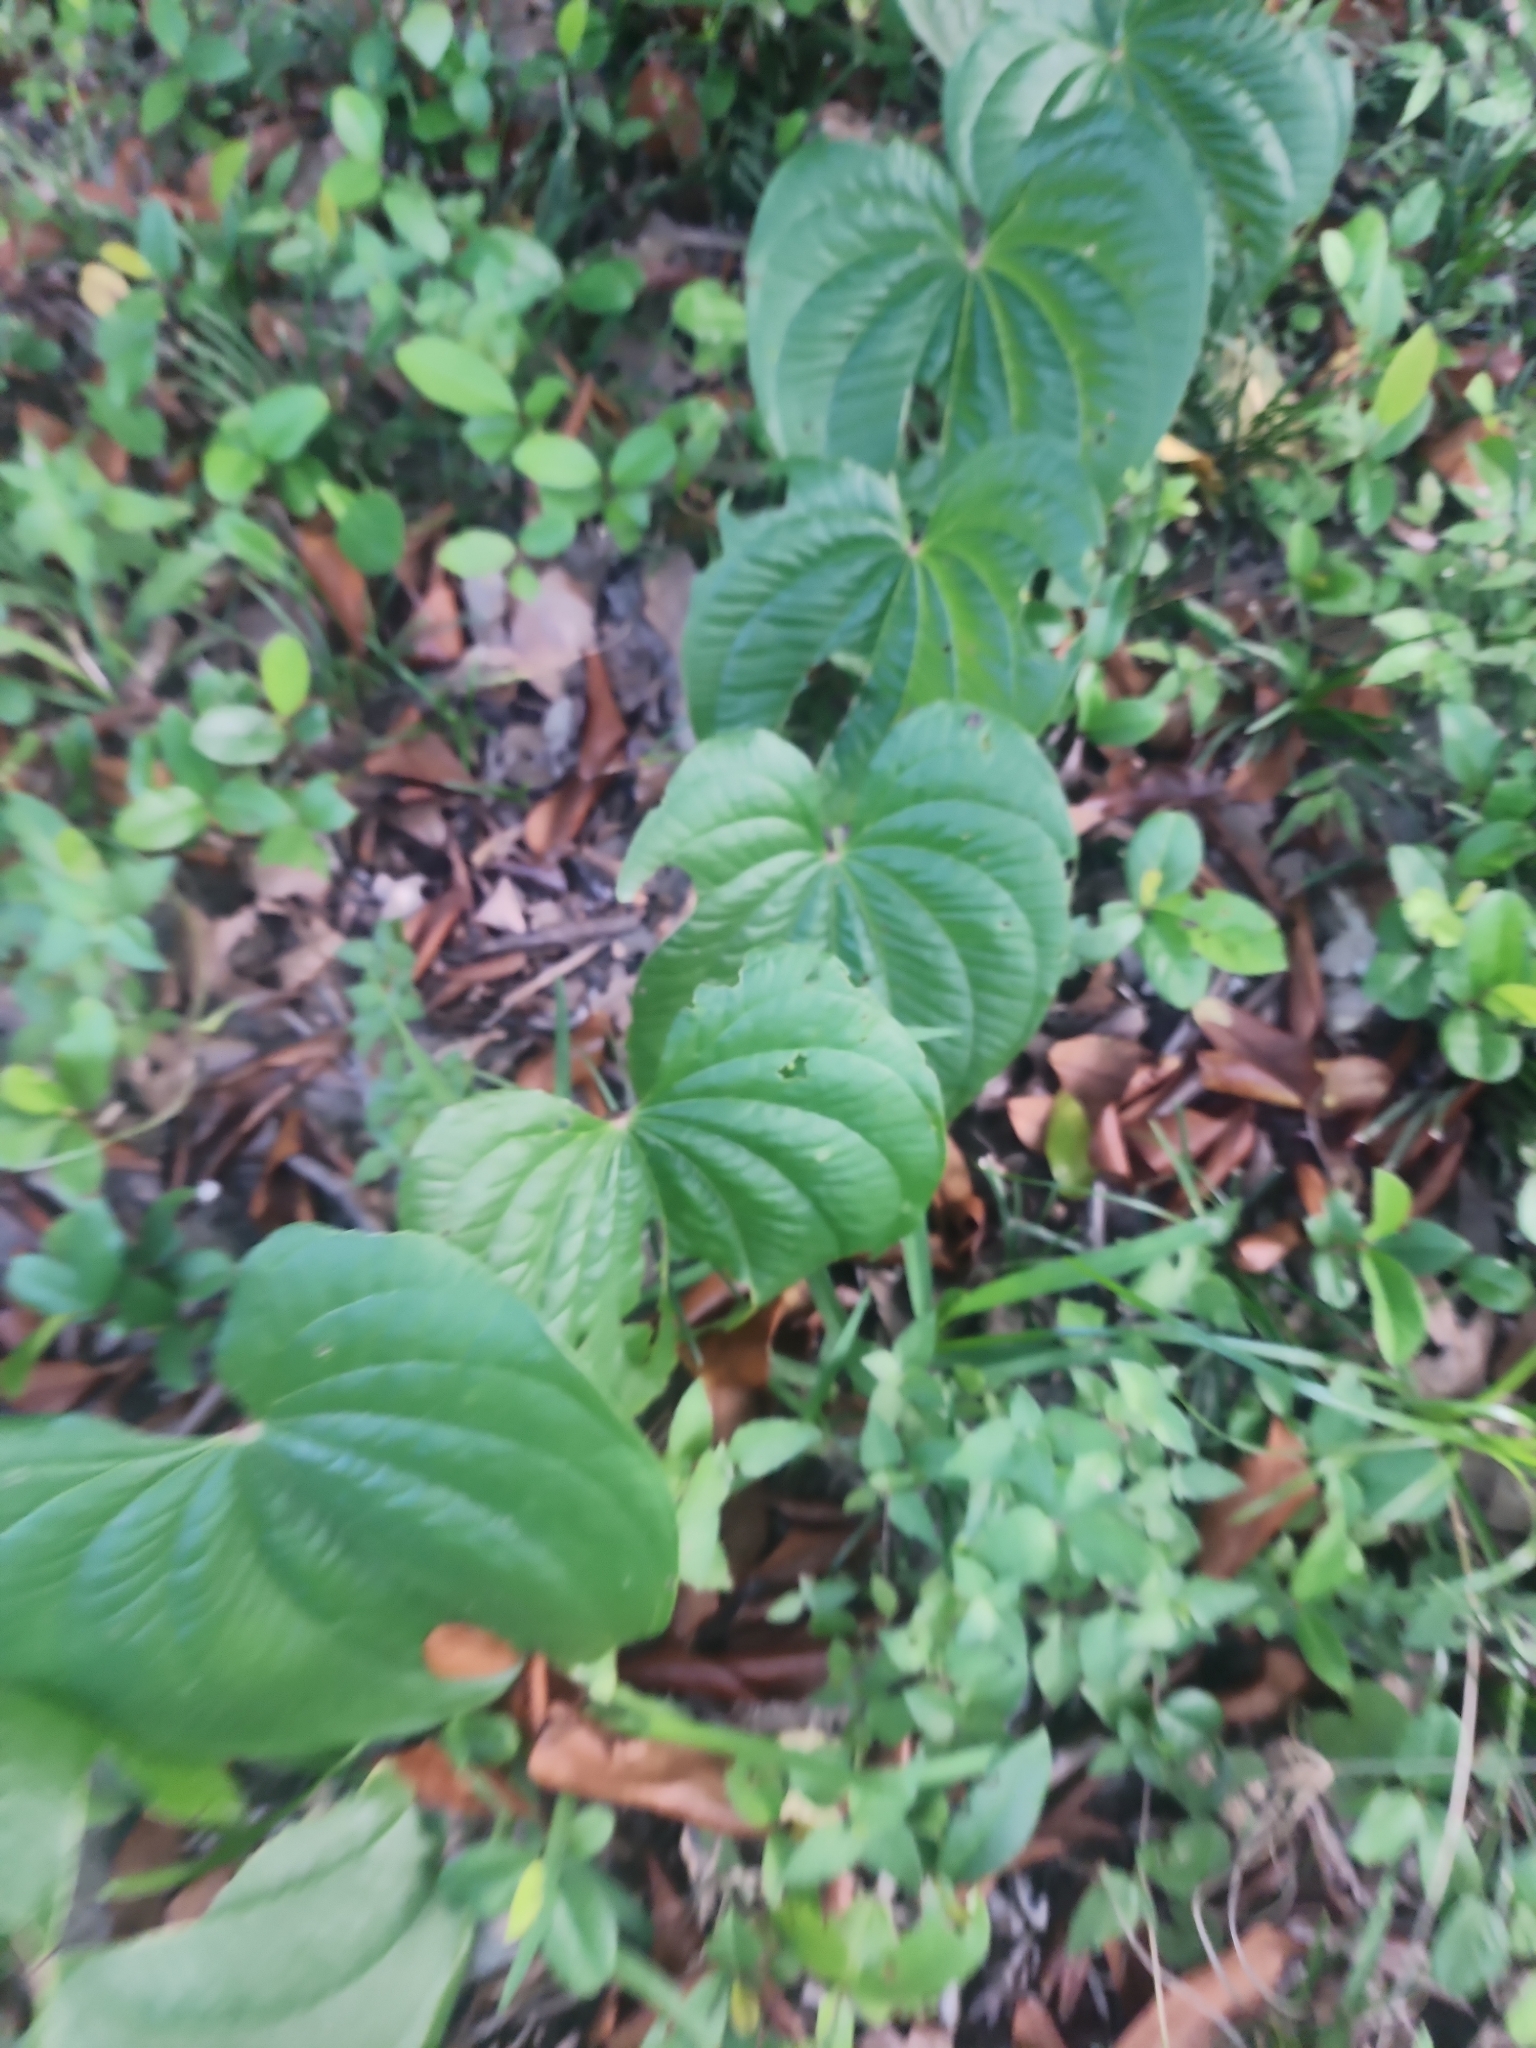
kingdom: Plantae
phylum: Tracheophyta
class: Liliopsida
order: Dioscoreales
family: Dioscoreaceae
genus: Dioscorea
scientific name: Dioscorea bulbifera
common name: Air yam
